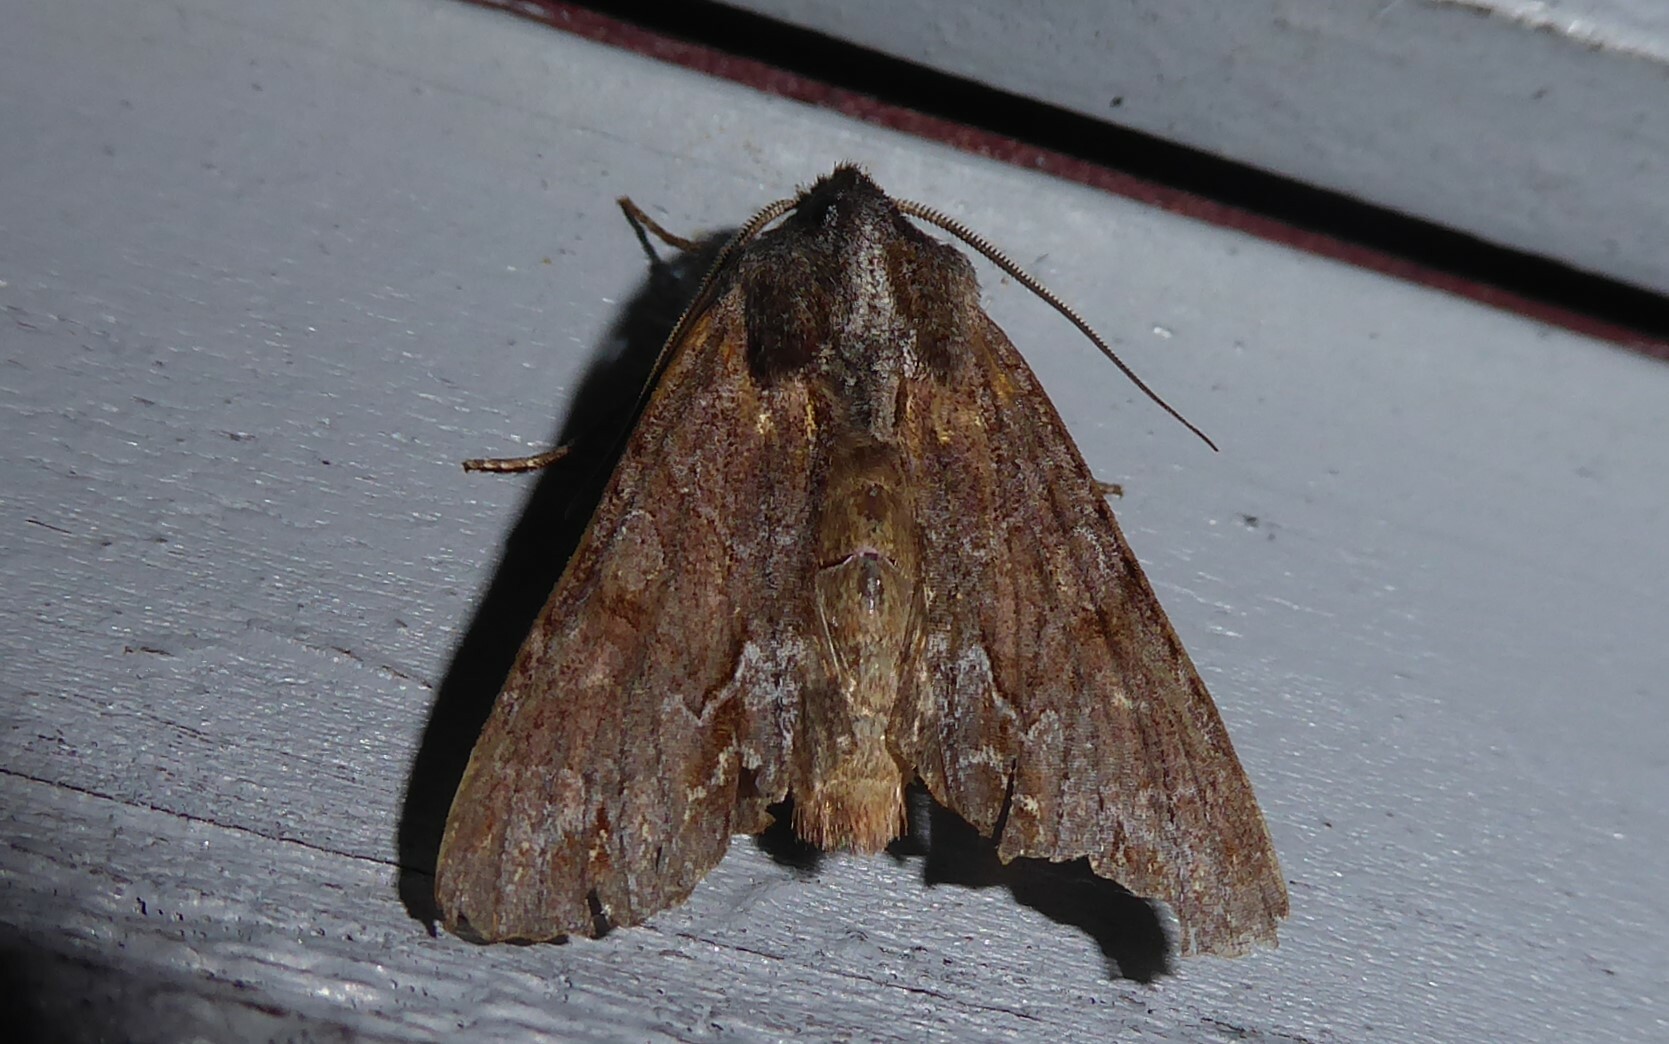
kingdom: Animalia
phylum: Arthropoda
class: Insecta
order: Lepidoptera
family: Noctuidae
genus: Ichneutica
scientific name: Ichneutica
